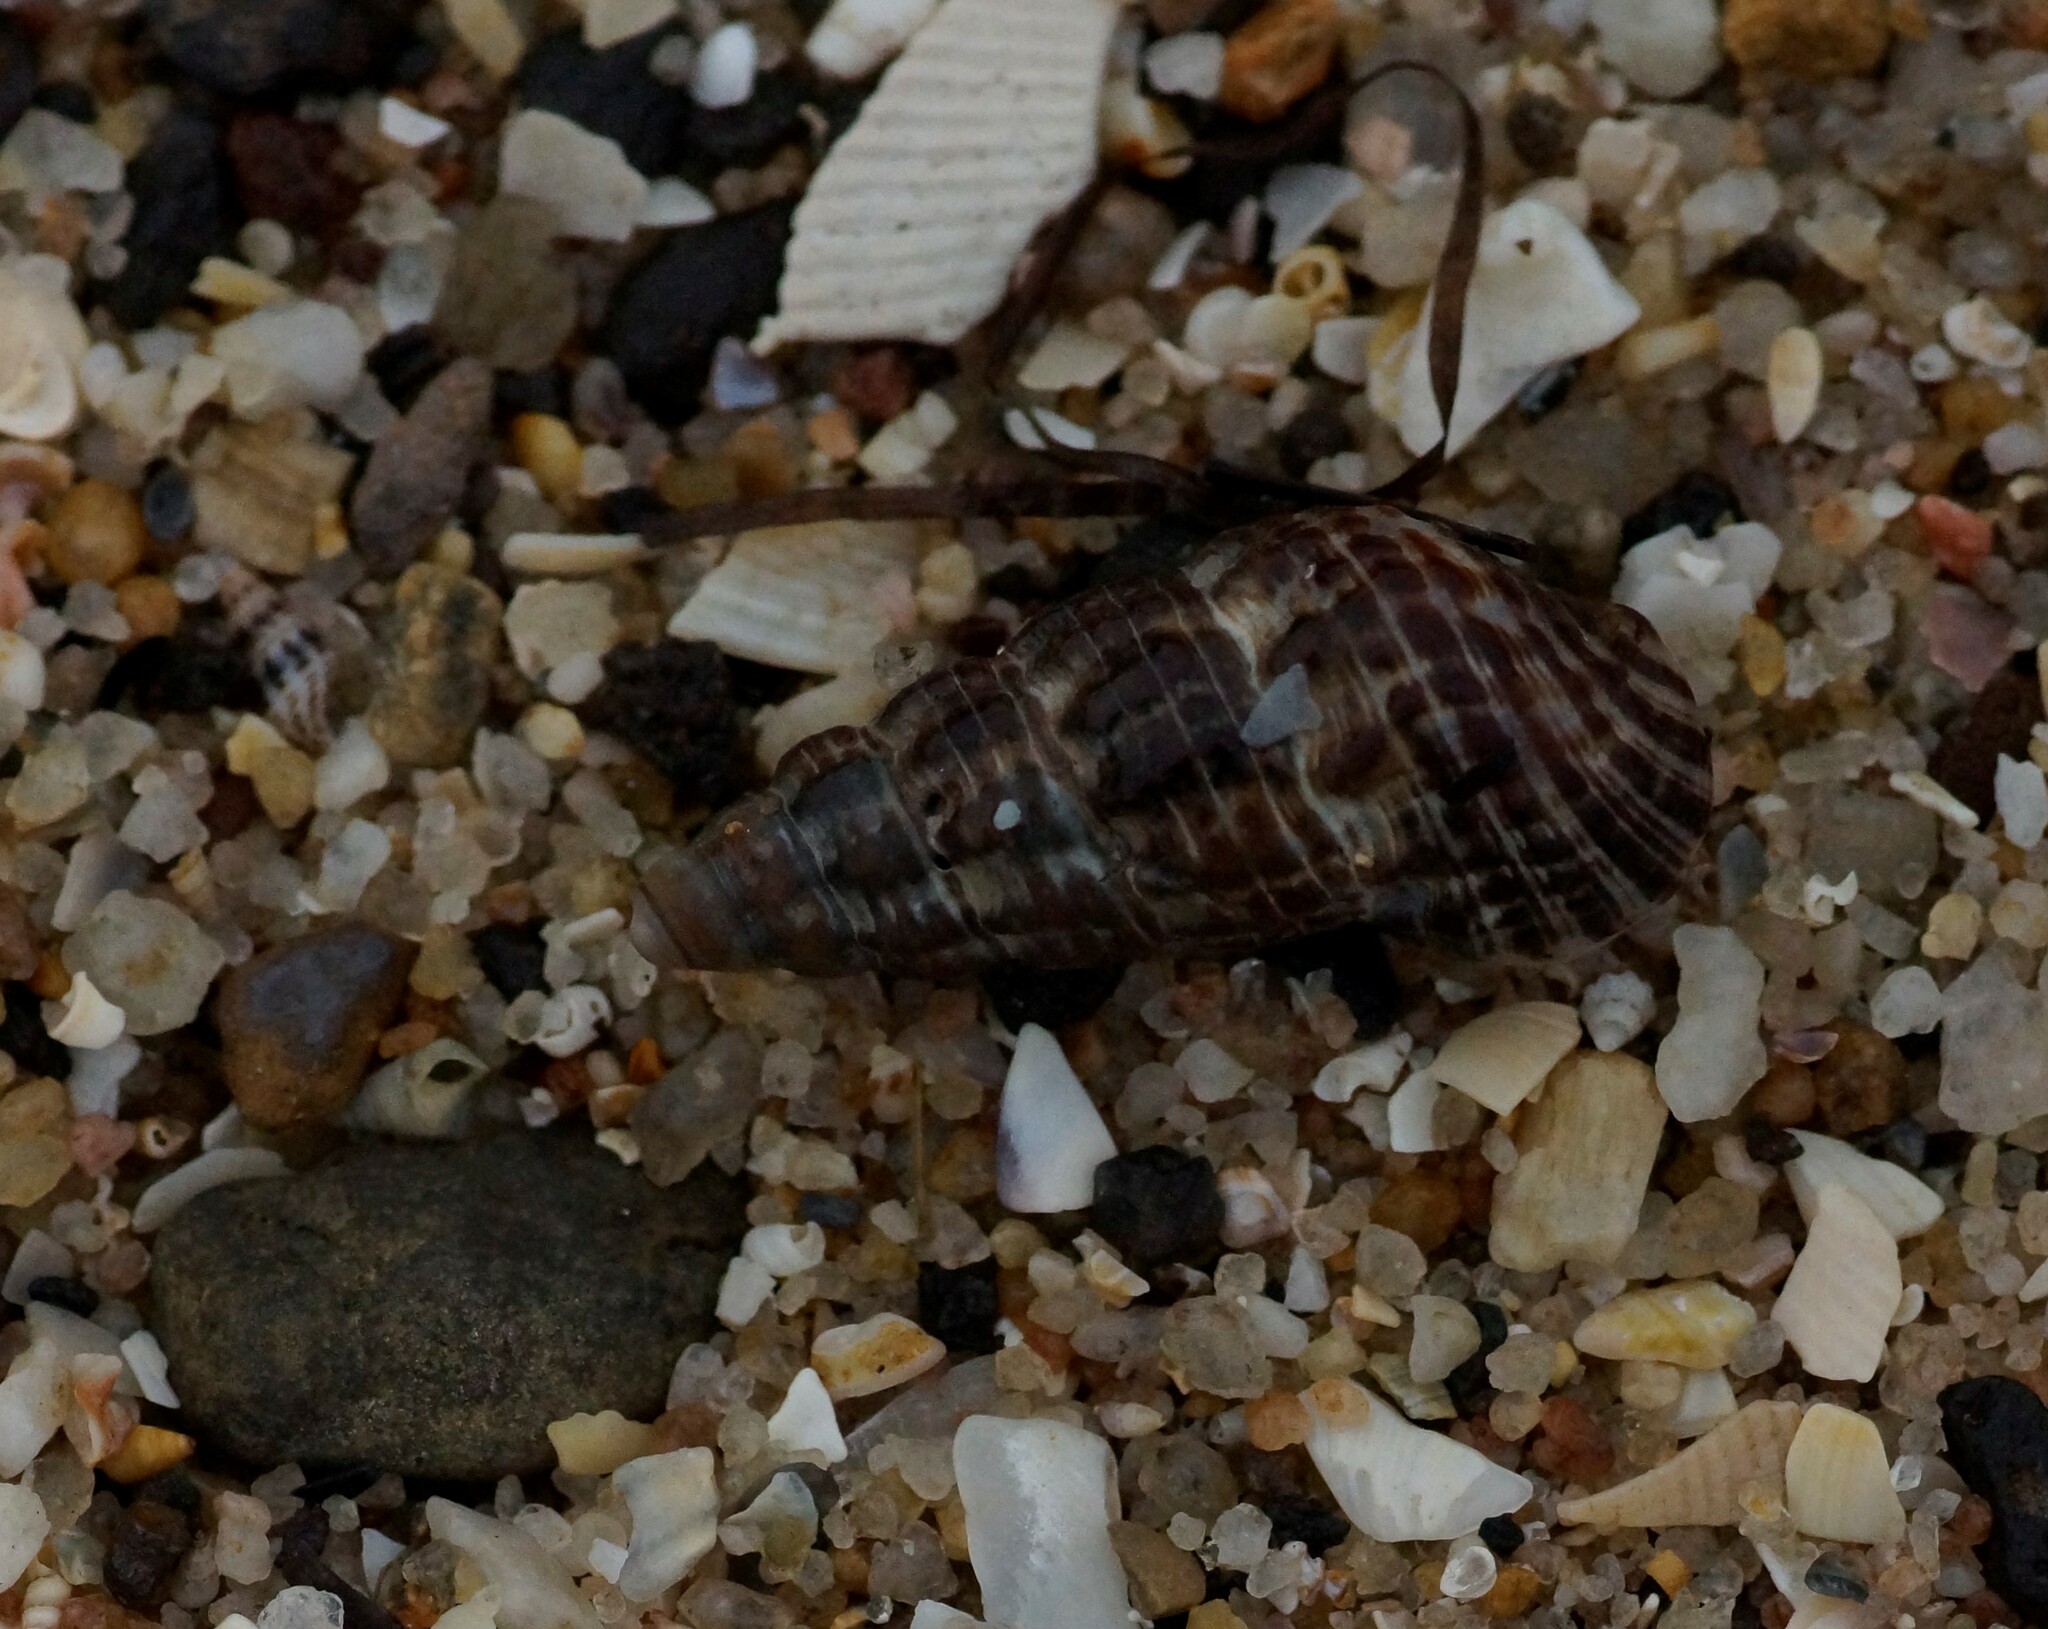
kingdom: Animalia
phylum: Mollusca
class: Gastropoda
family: Batillariidae
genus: Batillaria
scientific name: Batillaria australis
